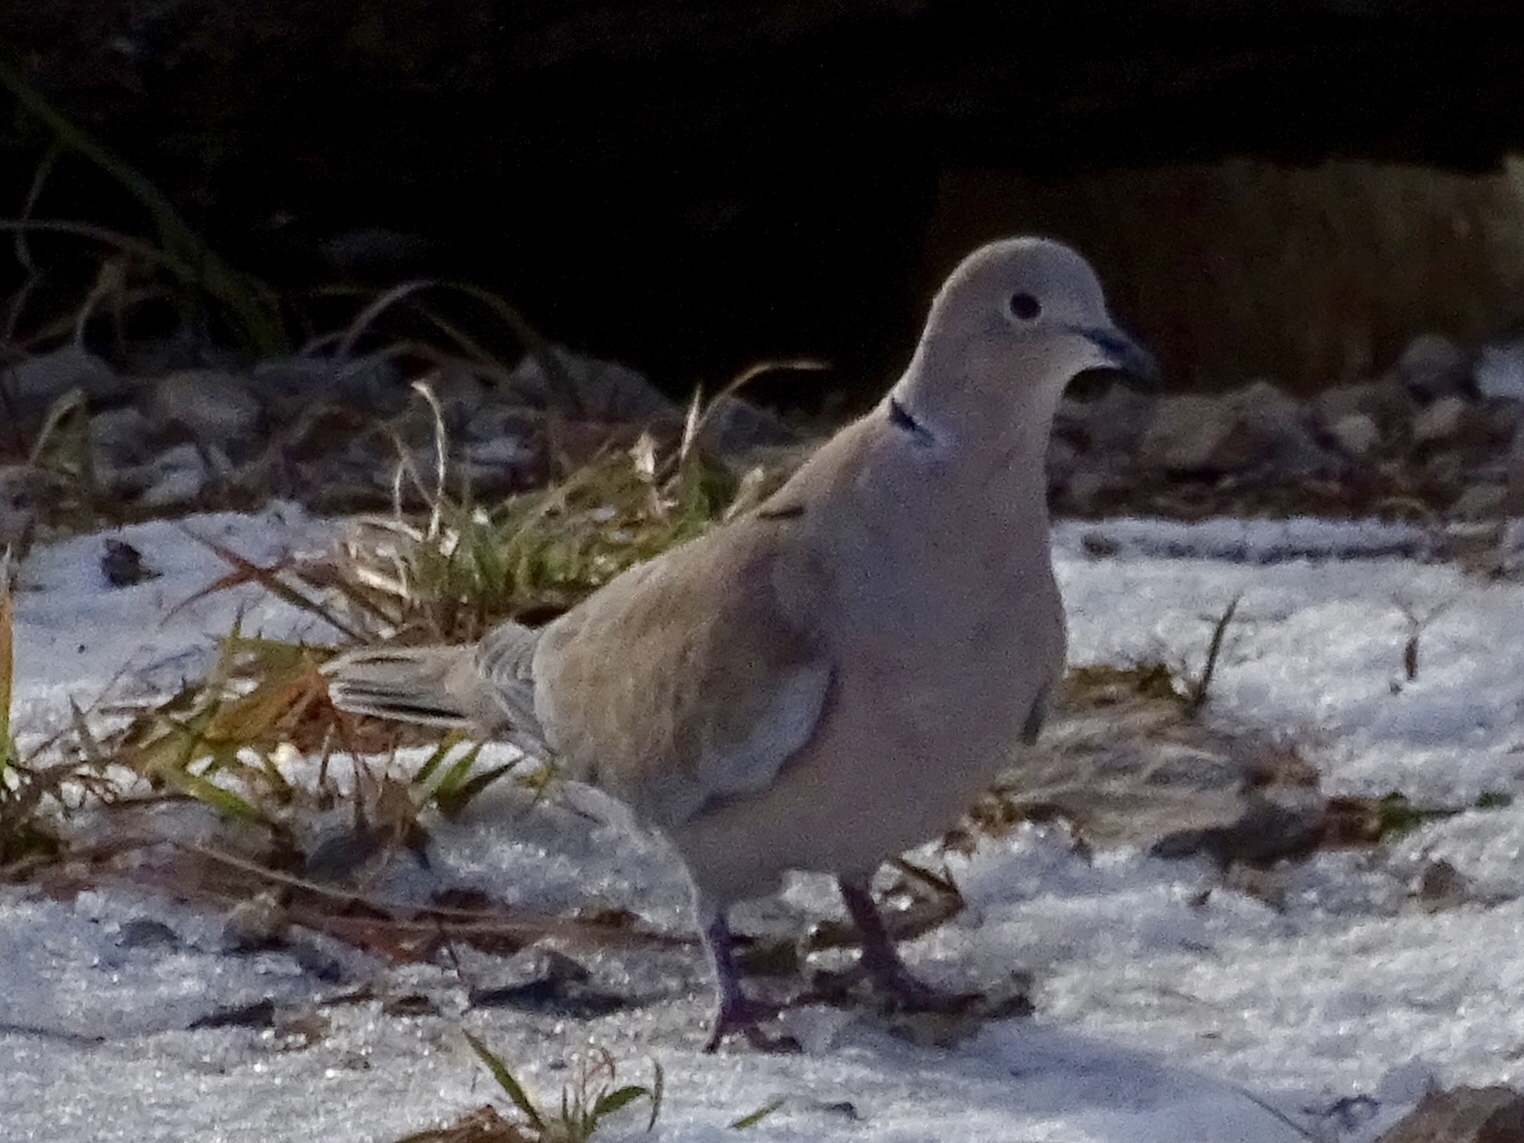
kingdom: Animalia
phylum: Chordata
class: Aves
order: Columbiformes
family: Columbidae
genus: Streptopelia
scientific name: Streptopelia decaocto
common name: Eurasian collared dove
